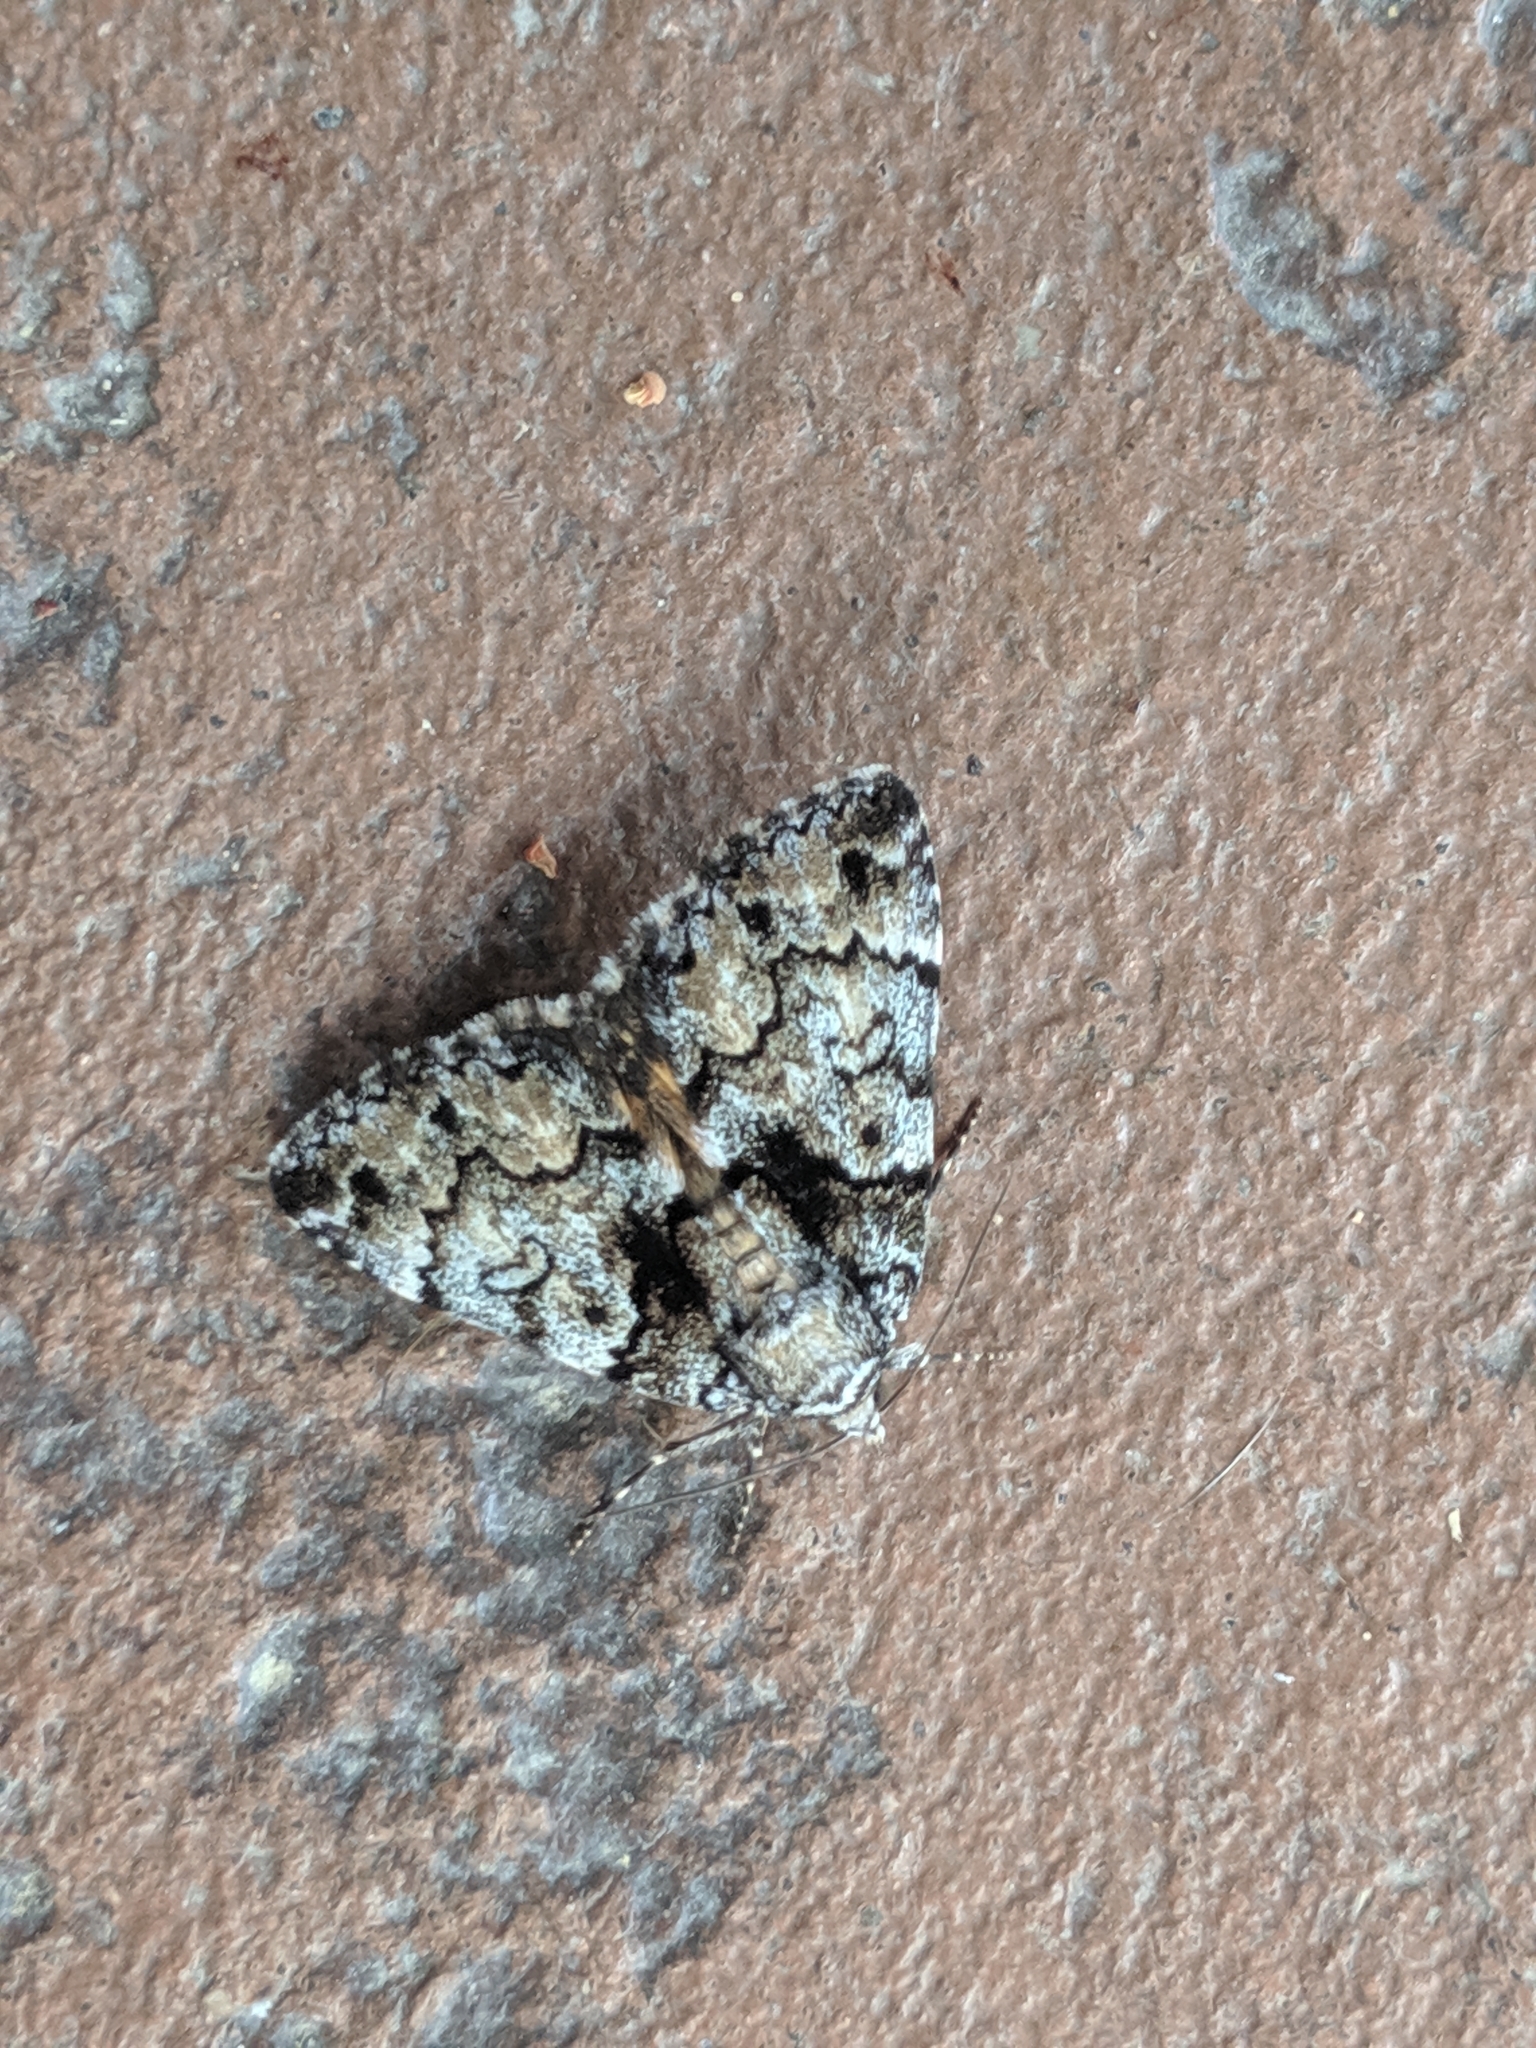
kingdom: Animalia
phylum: Arthropoda
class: Insecta
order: Lepidoptera
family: Erebidae
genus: Allotria
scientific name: Allotria elonympha
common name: False underwing
